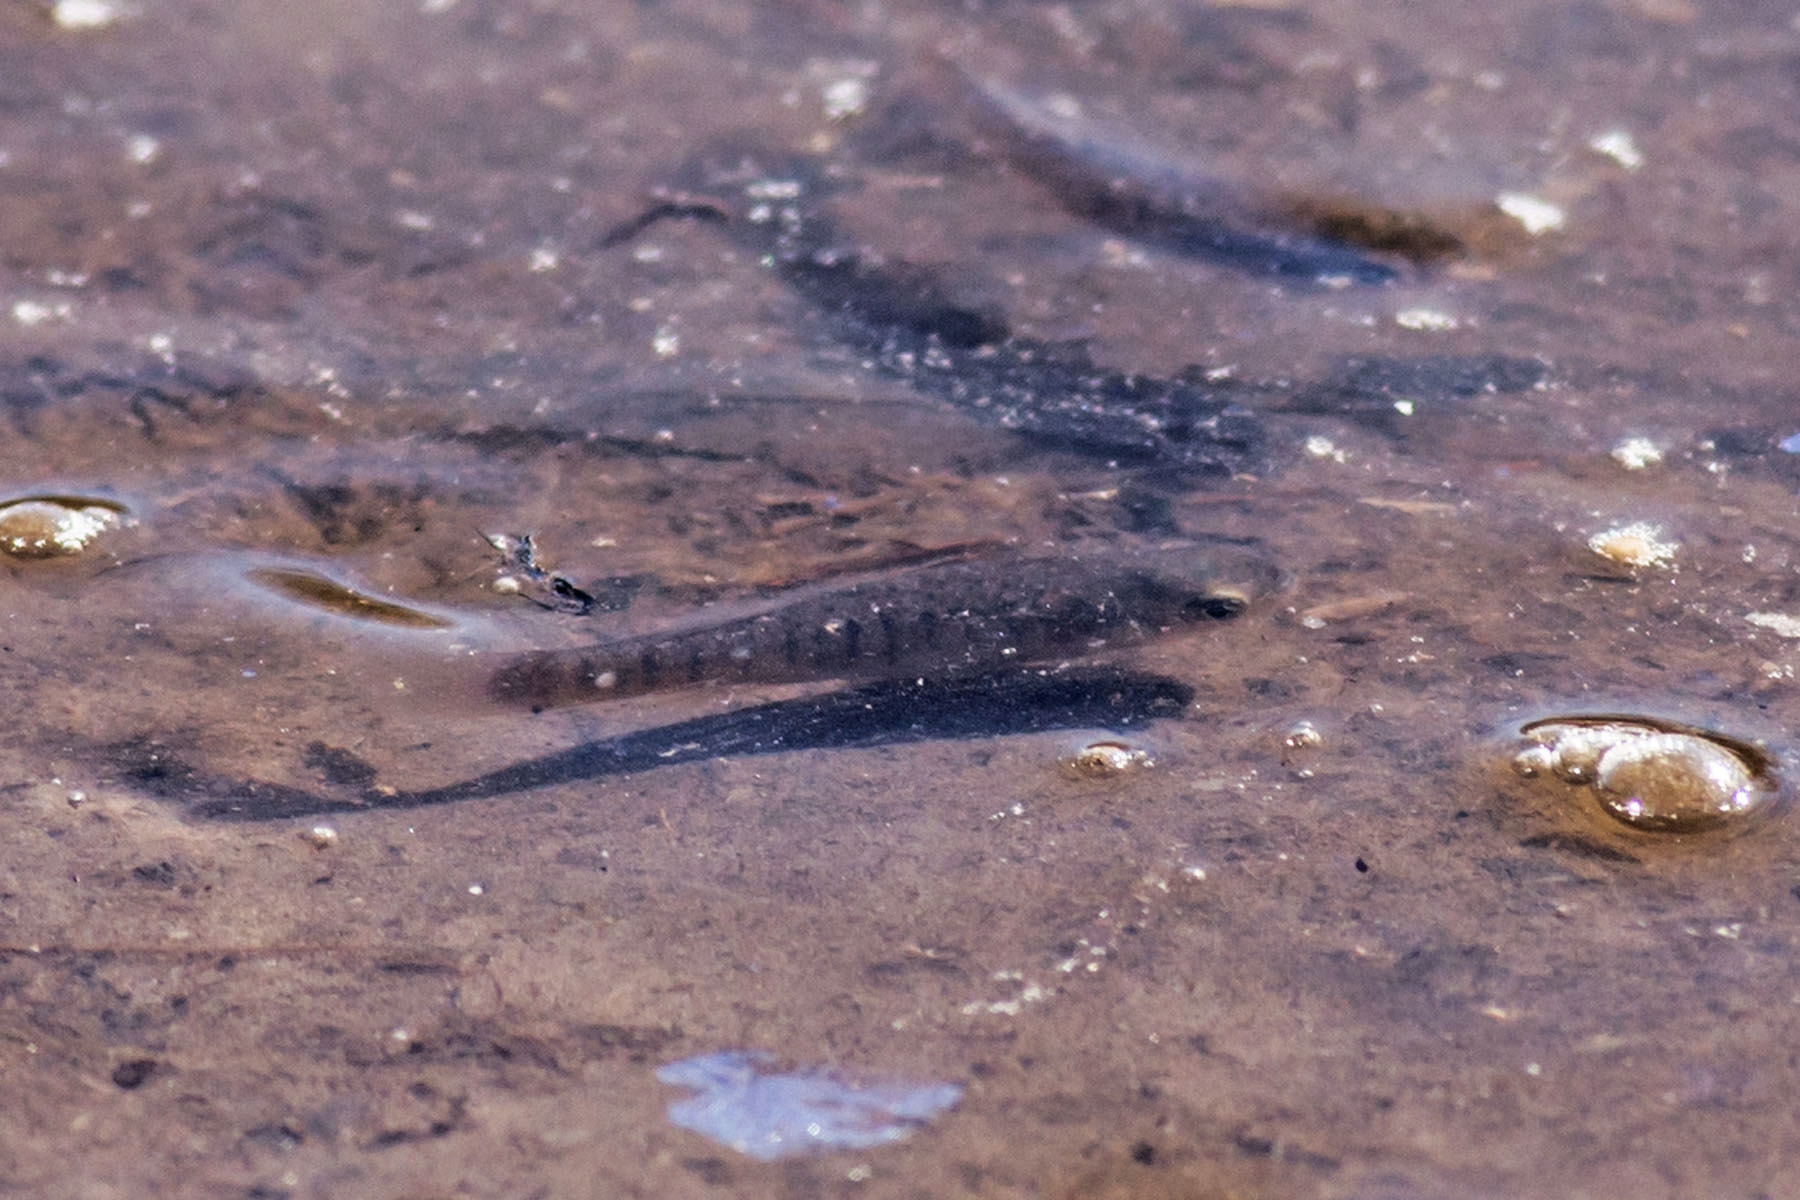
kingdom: Animalia
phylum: Chordata
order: Cyprinodontiformes
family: Fundulidae
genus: Fundulus
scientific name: Fundulus diaphanus
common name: Banded killifish
